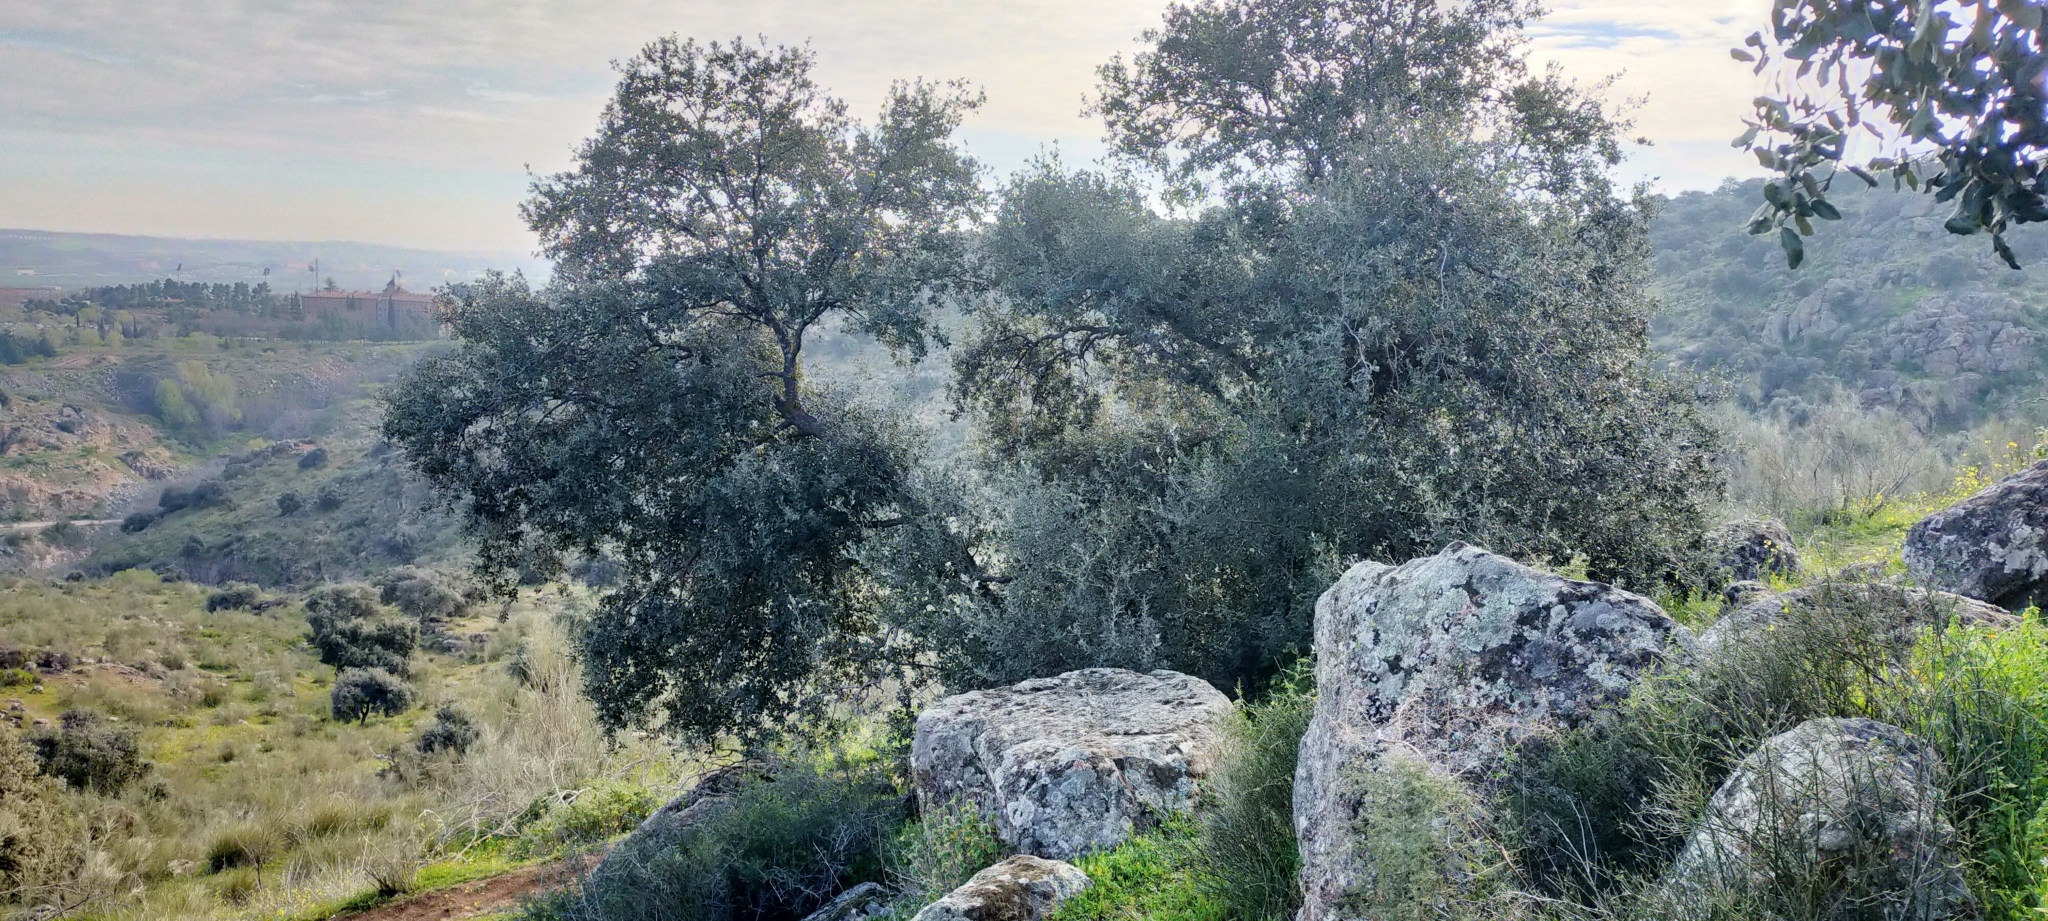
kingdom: Plantae
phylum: Tracheophyta
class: Magnoliopsida
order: Fagales
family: Fagaceae
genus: Quercus
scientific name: Quercus rotundifolia
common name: Holm oak
